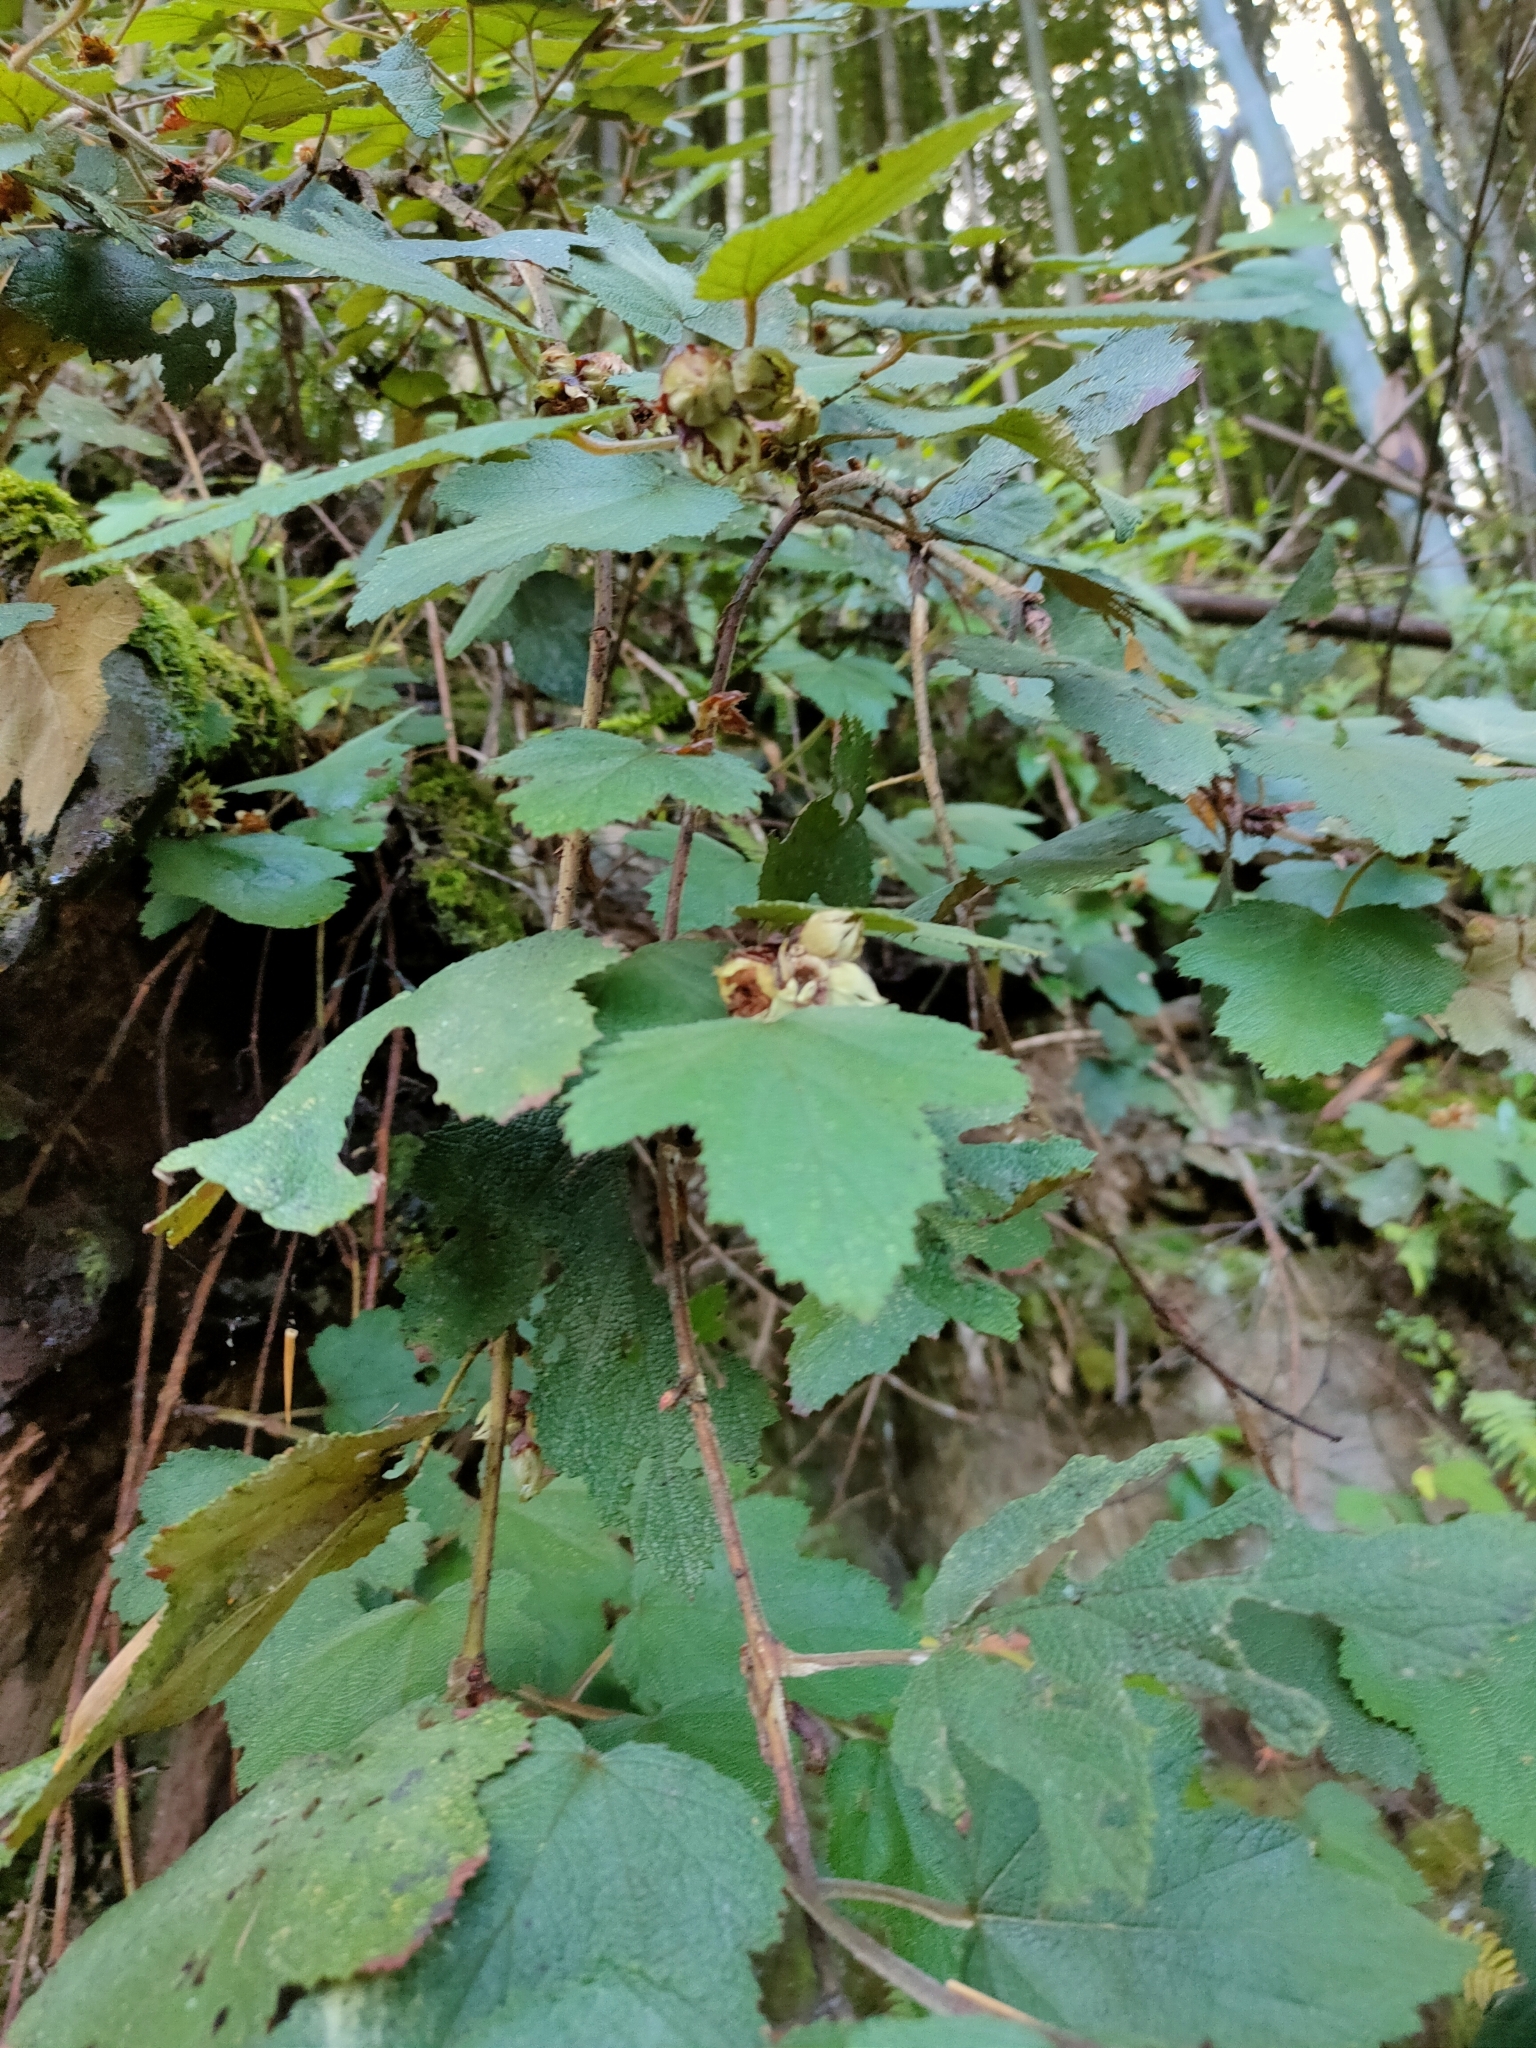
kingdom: Plantae
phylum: Tracheophyta
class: Magnoliopsida
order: Rosales
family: Rosaceae
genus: Rubus
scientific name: Rubus formosensis
